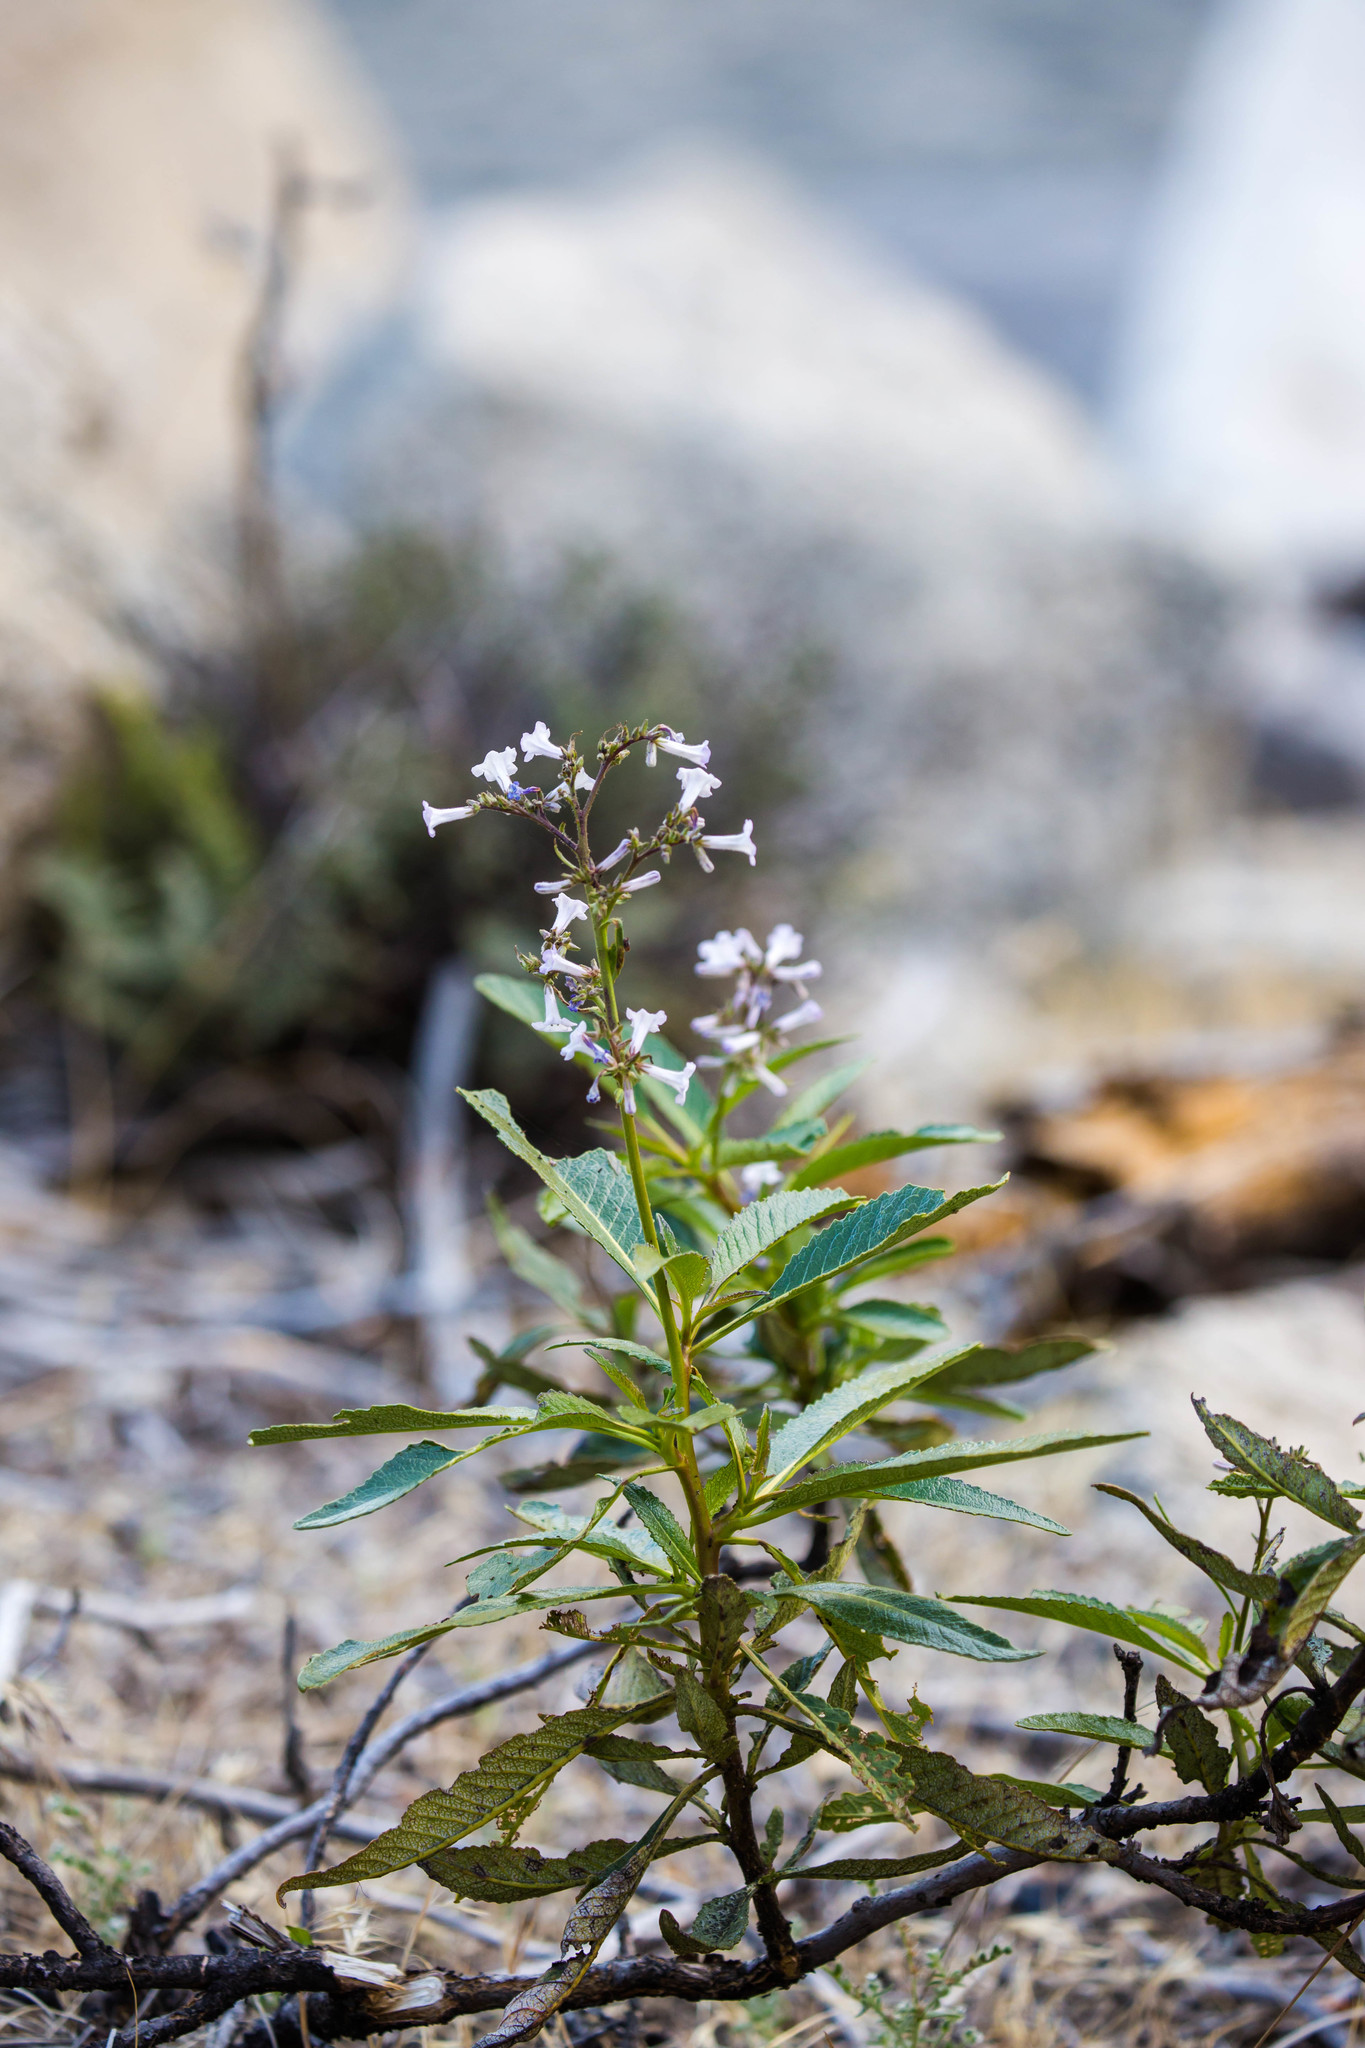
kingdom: Plantae
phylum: Tracheophyta
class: Magnoliopsida
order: Boraginales
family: Namaceae
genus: Eriodictyon
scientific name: Eriodictyon californicum
